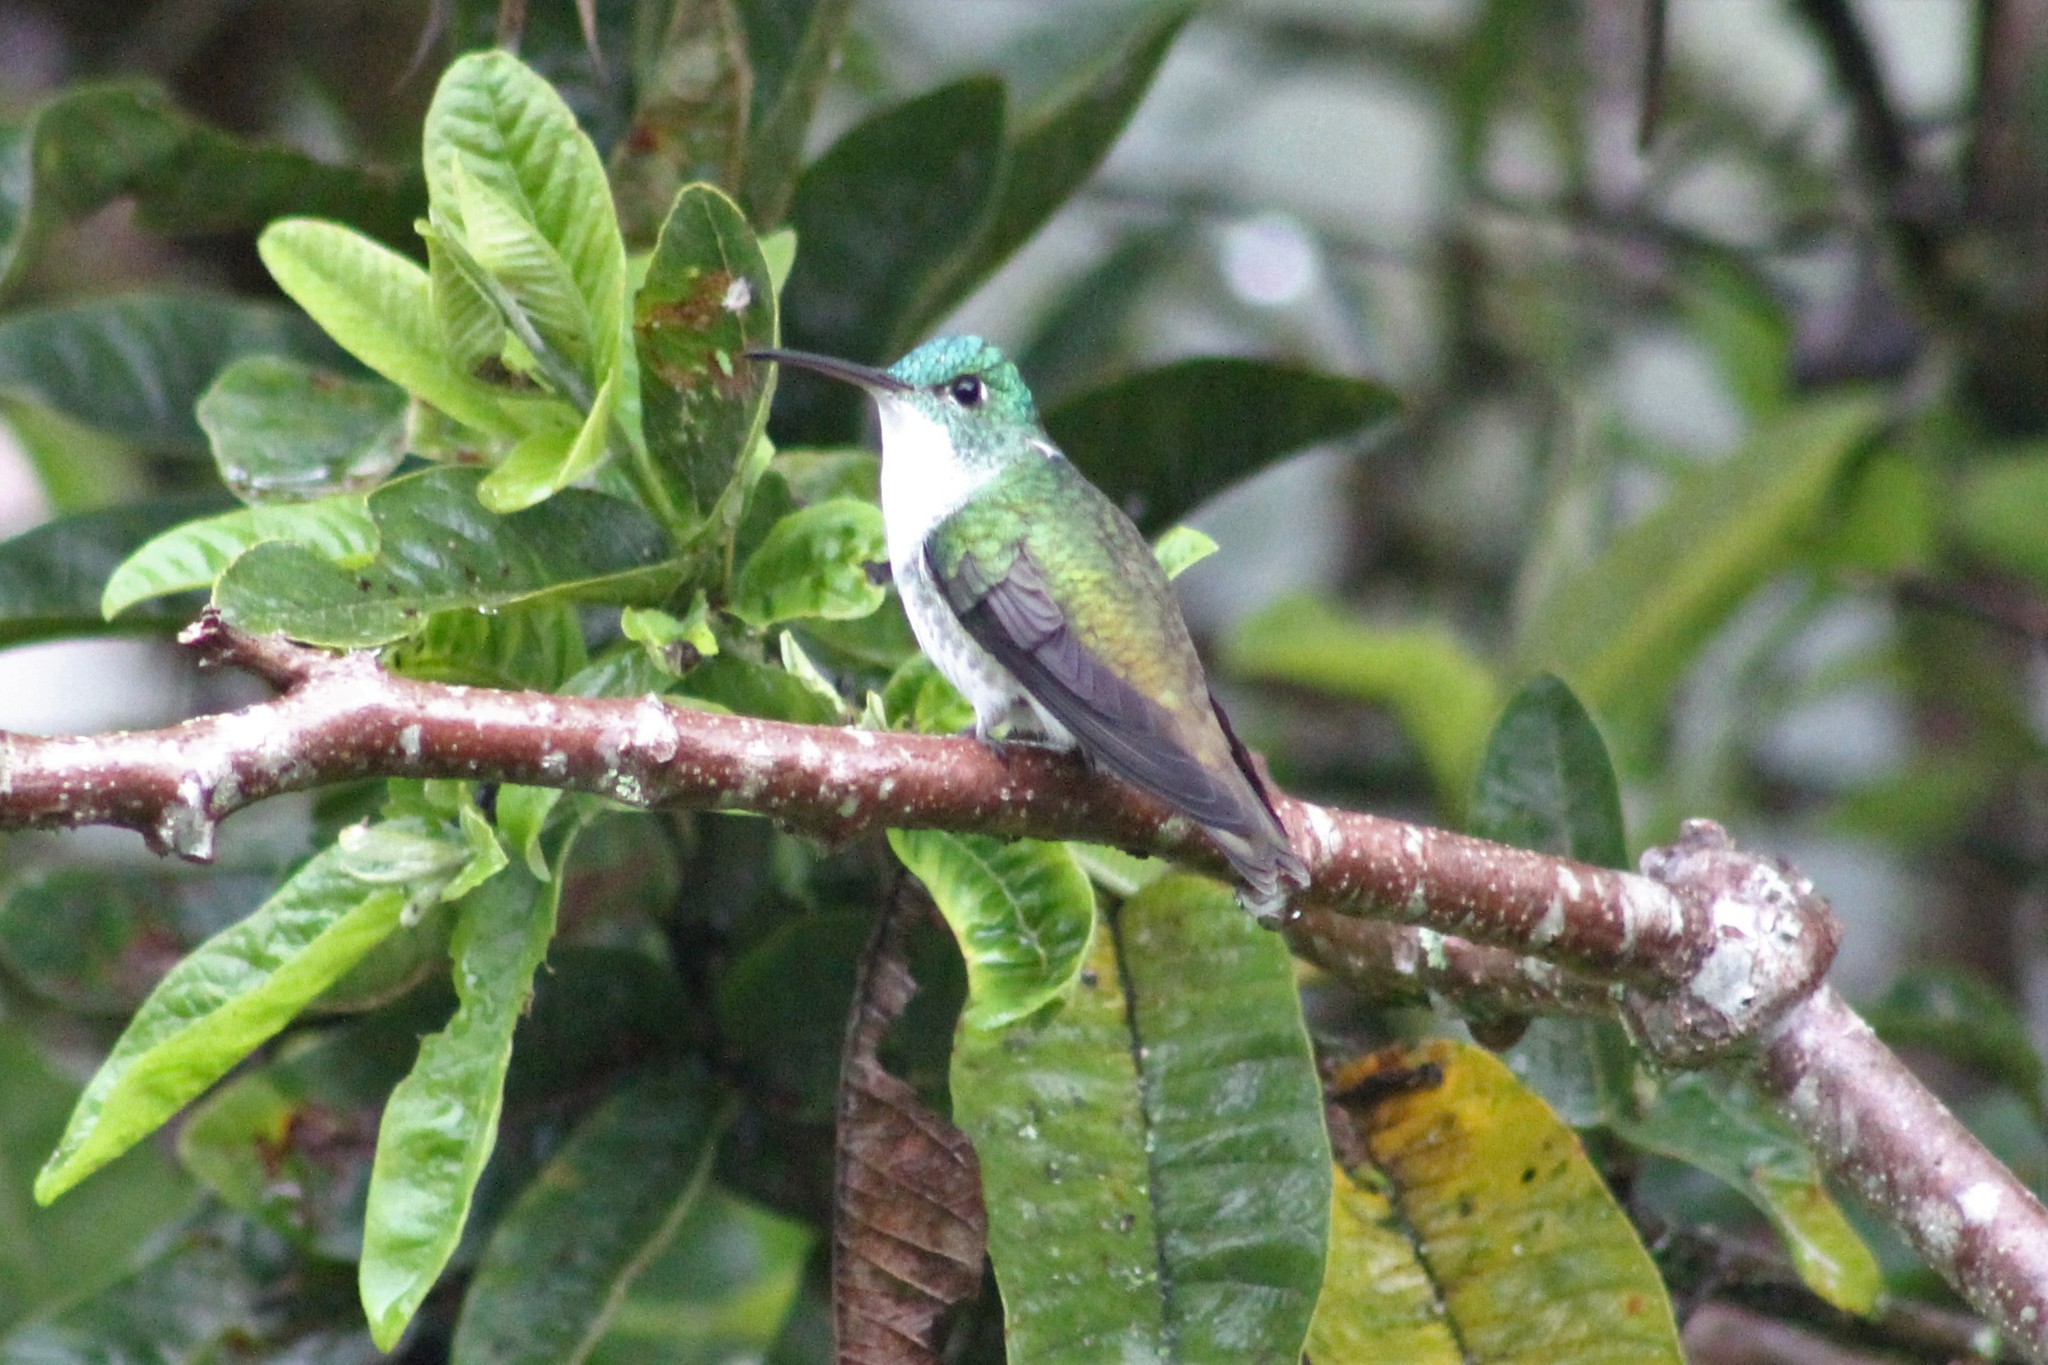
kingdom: Animalia
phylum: Chordata
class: Aves
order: Apodiformes
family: Trochilidae
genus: Uranomitra
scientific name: Uranomitra franciae
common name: Andean emerald
